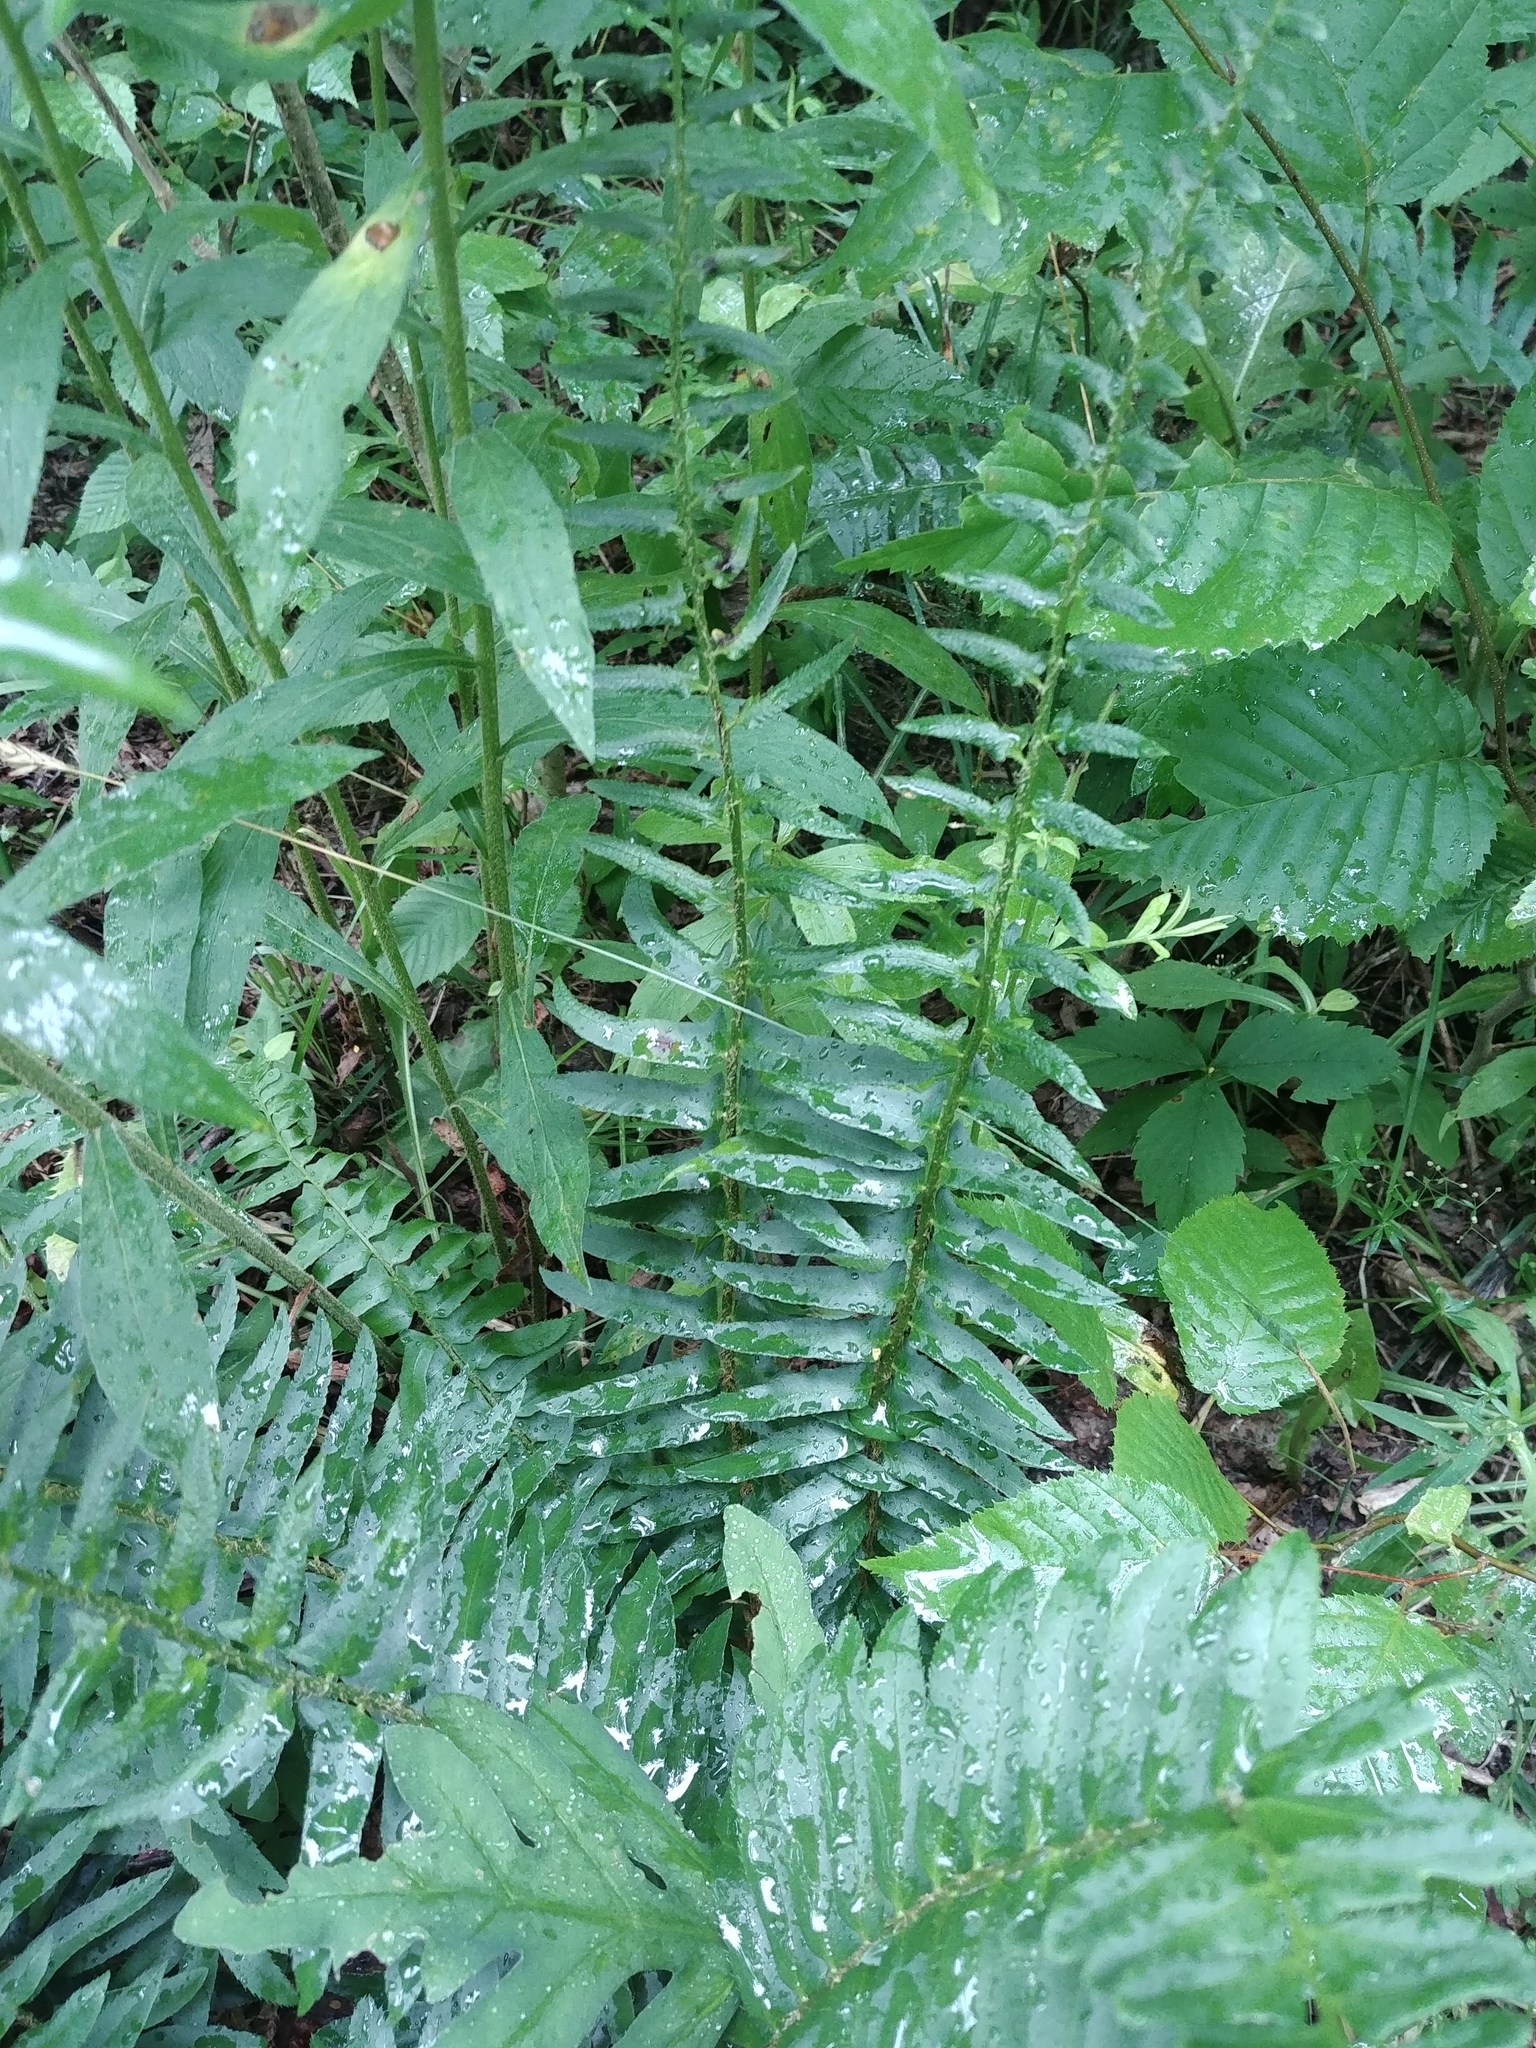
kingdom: Plantae
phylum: Tracheophyta
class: Polypodiopsida
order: Polypodiales
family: Dryopteridaceae
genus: Polystichum
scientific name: Polystichum acrostichoides
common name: Christmas fern
